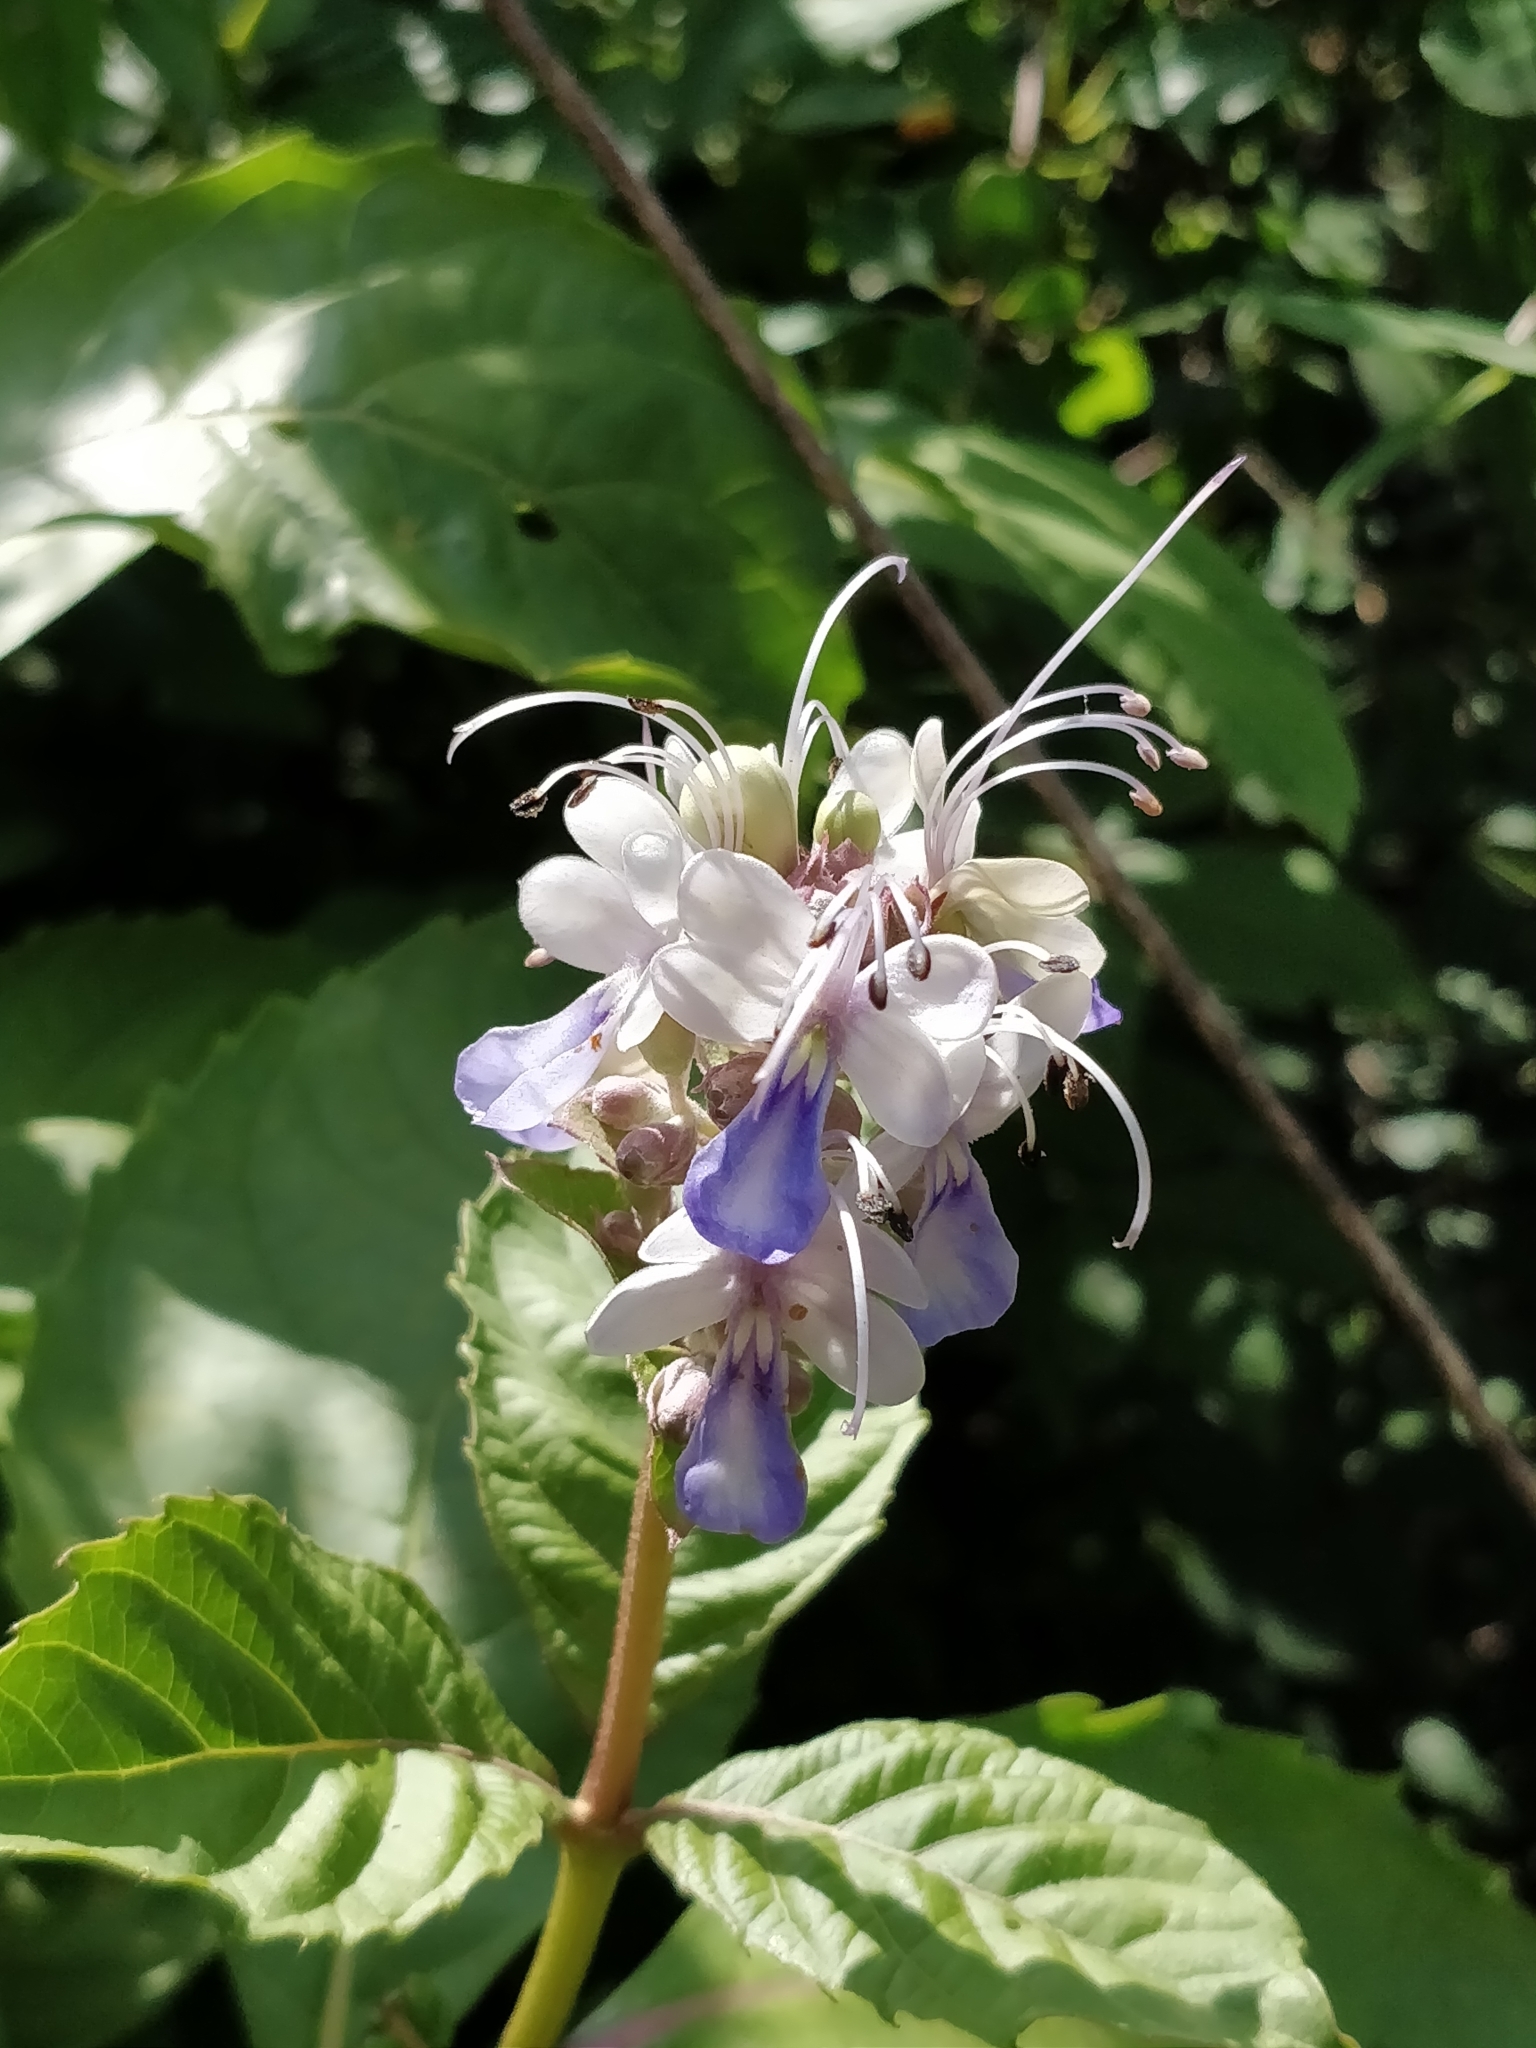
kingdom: Plantae
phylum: Tracheophyta
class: Magnoliopsida
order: Lamiales
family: Lamiaceae
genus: Rotheca
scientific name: Rotheca serrata
